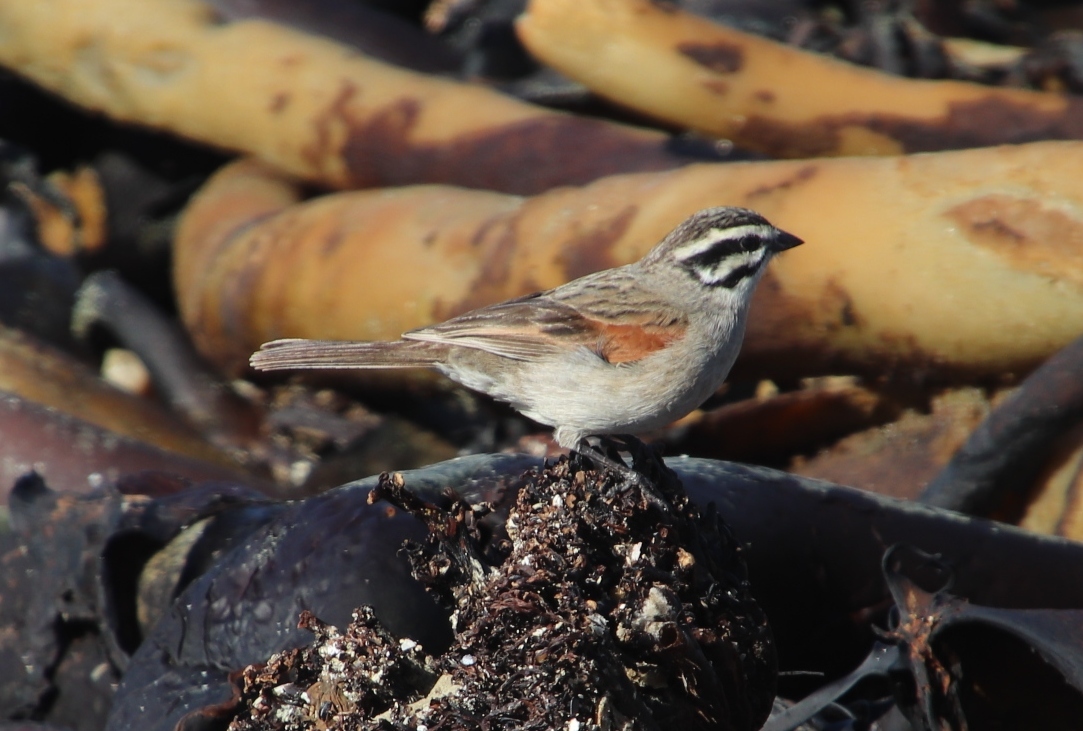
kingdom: Animalia
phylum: Chordata
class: Aves
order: Passeriformes
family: Emberizidae
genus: Emberiza
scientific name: Emberiza capensis
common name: Cape bunting
